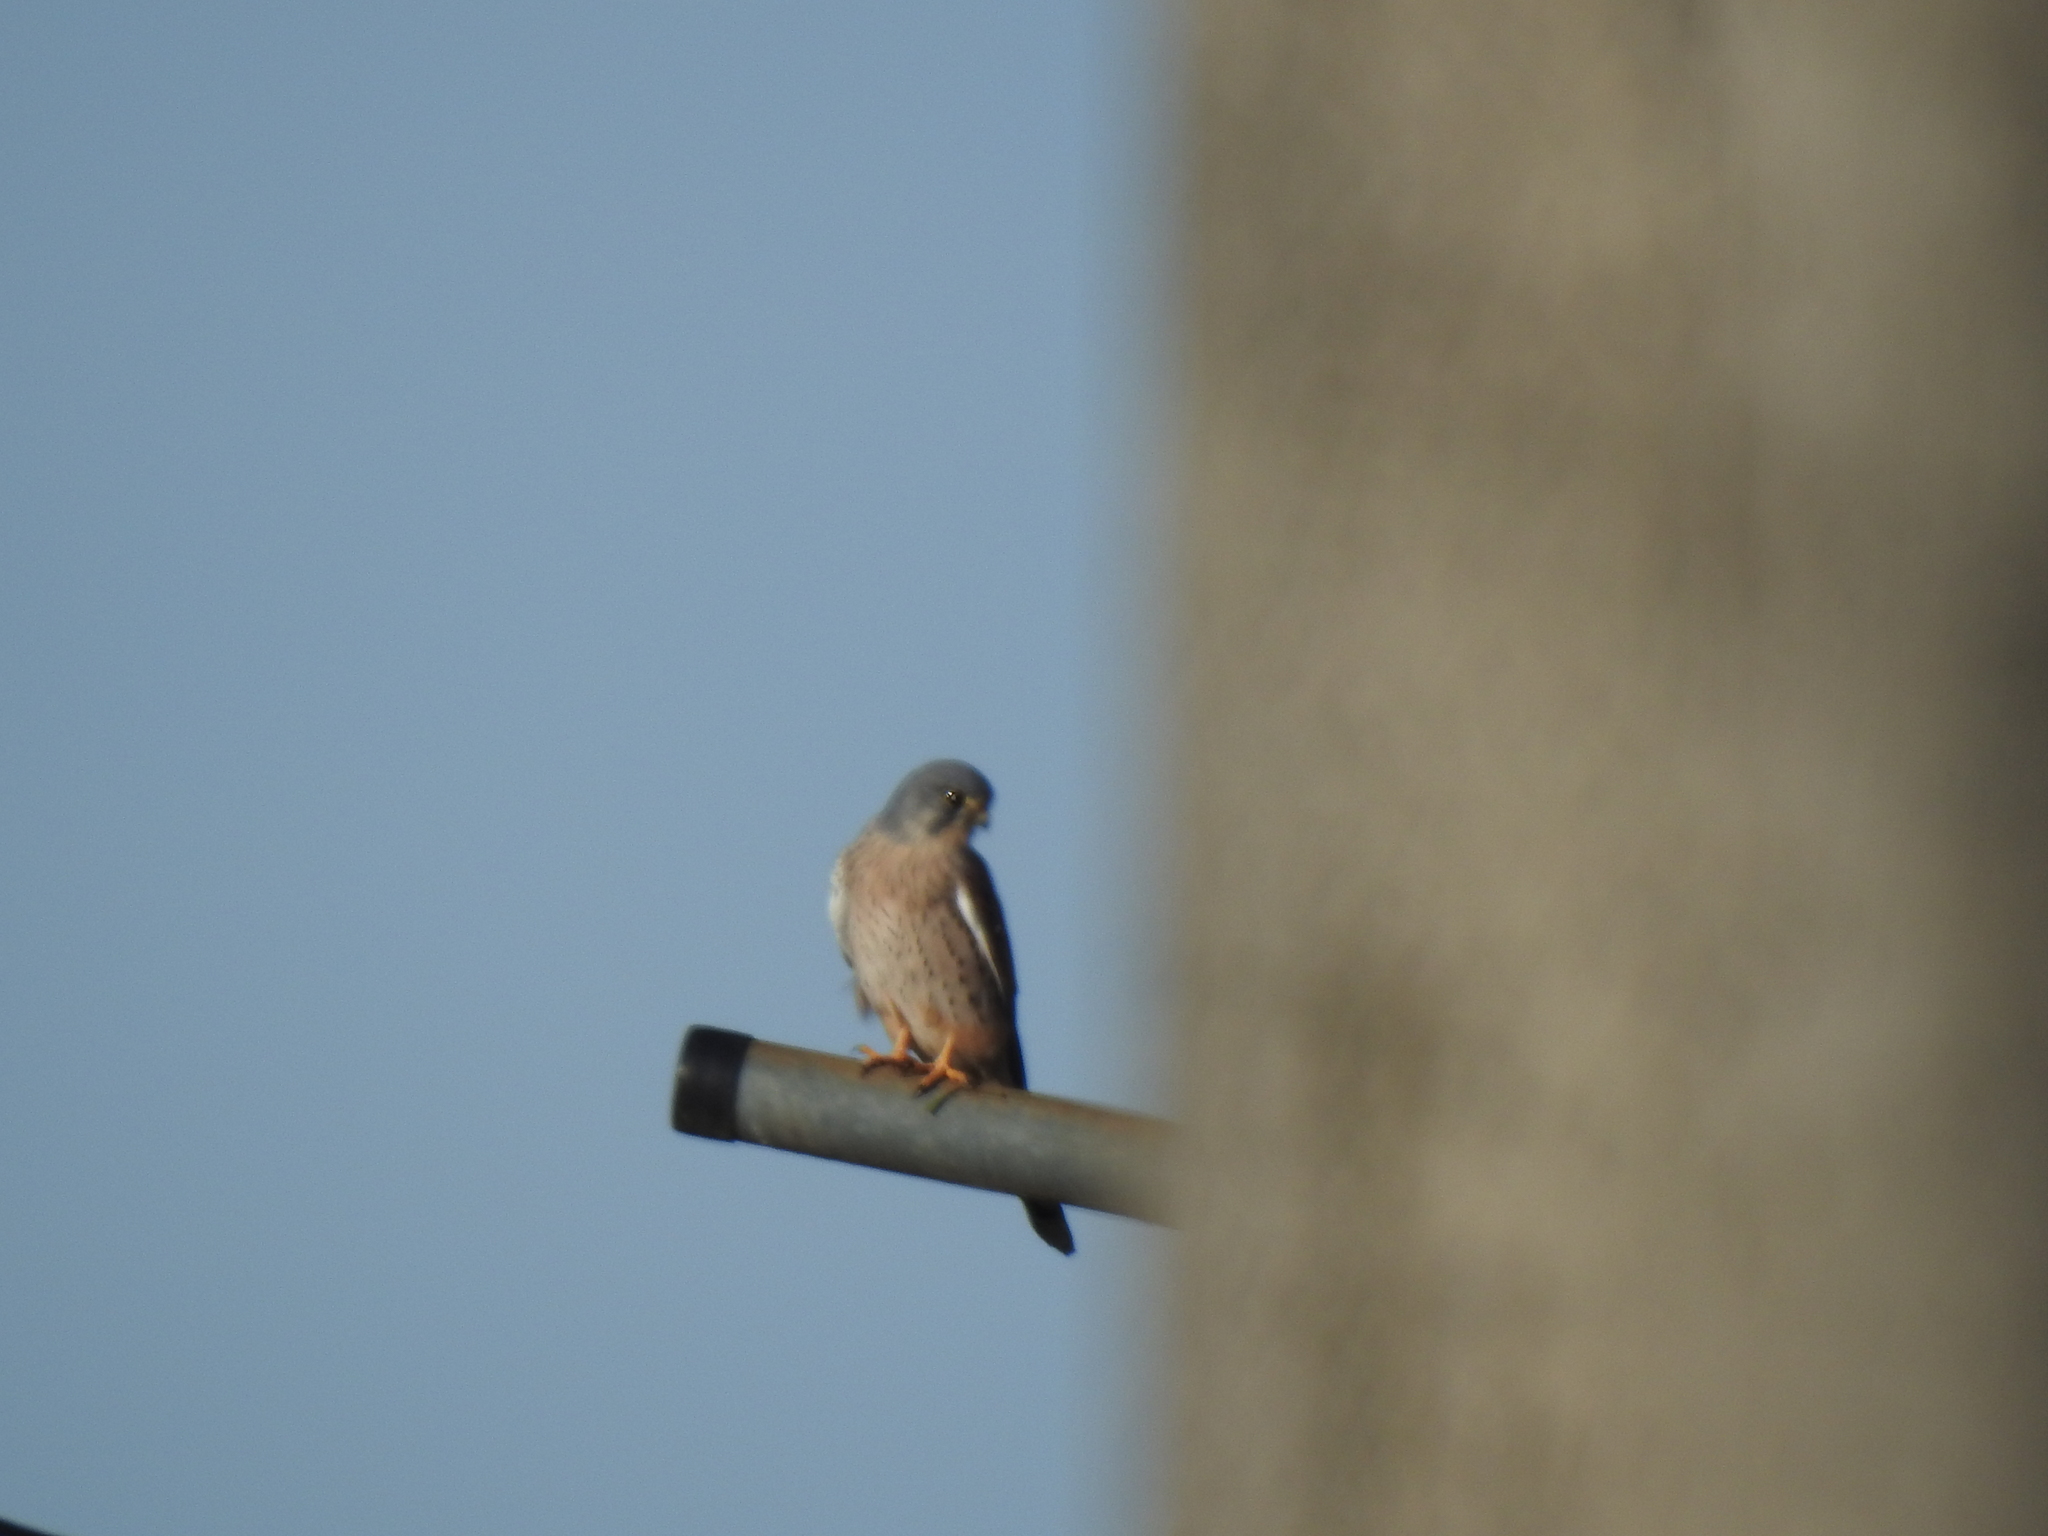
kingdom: Animalia
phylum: Chordata
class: Aves
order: Falconiformes
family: Falconidae
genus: Falco
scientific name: Falco tinnunculus
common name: Common kestrel
